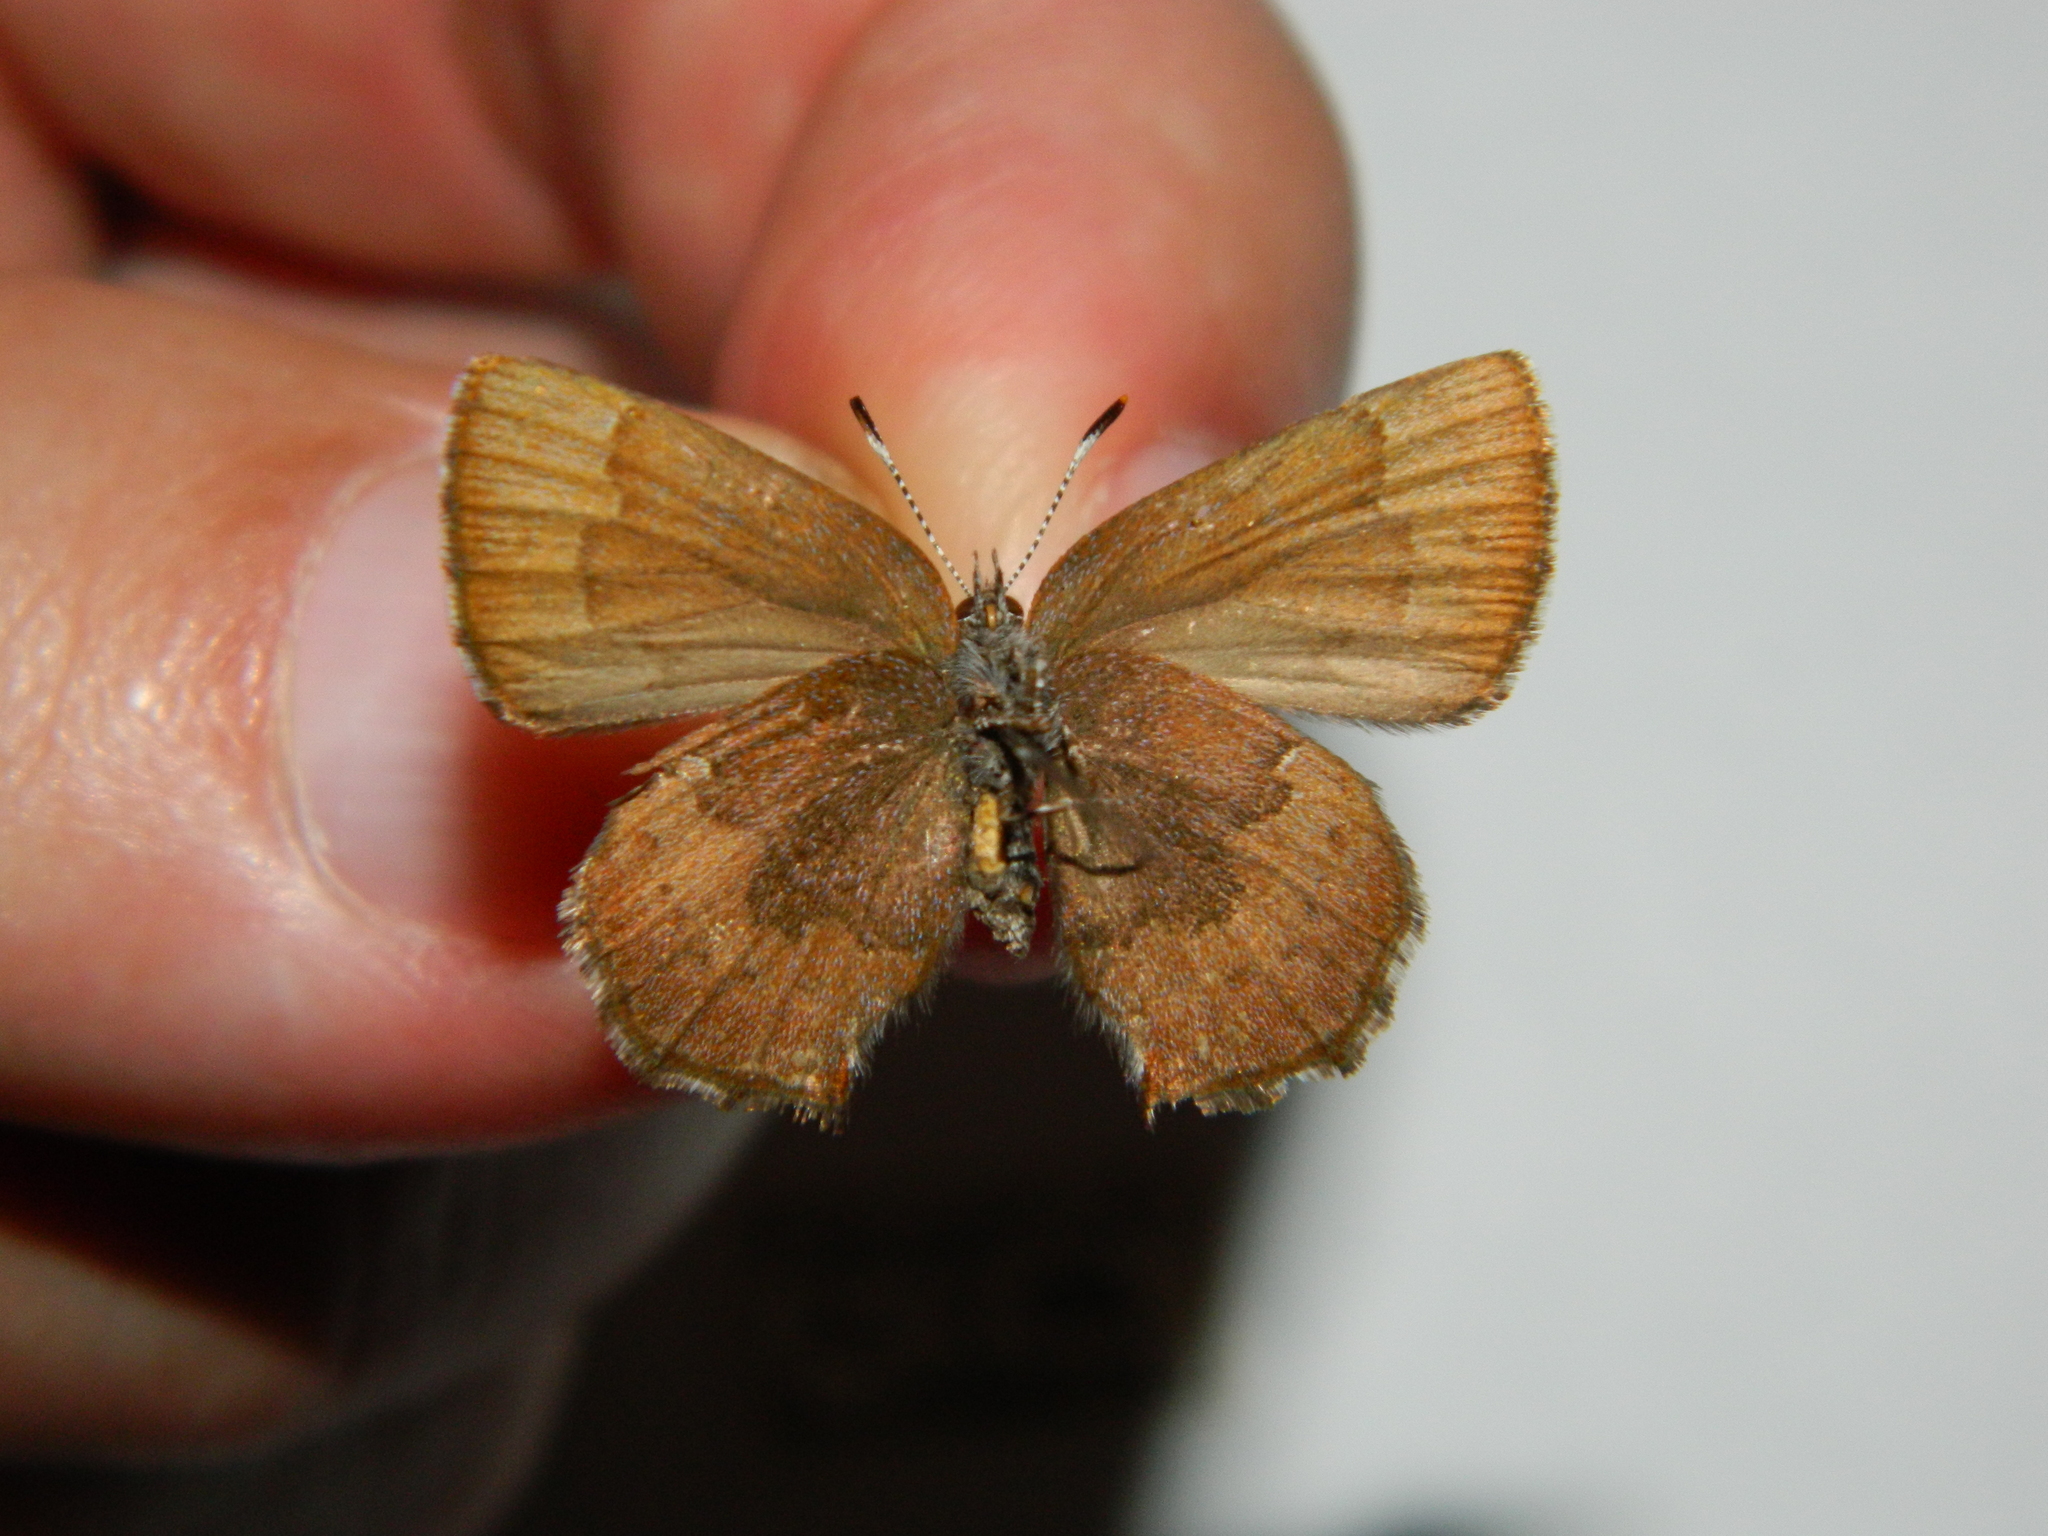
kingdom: Animalia
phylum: Arthropoda
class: Insecta
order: Lepidoptera
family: Lycaenidae
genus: Incisalia
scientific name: Incisalia irioides
